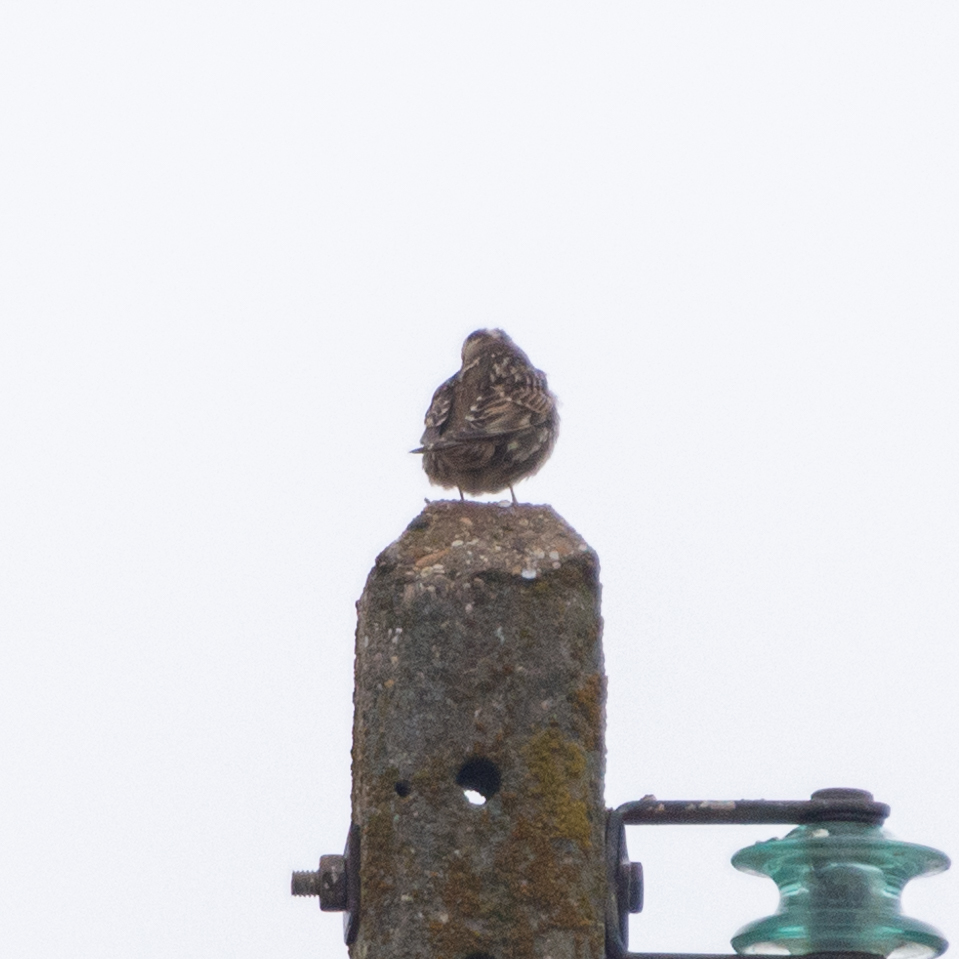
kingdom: Animalia
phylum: Chordata
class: Aves
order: Passeriformes
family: Passeridae
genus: Petronia
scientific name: Petronia petronia
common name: Rock sparrow
